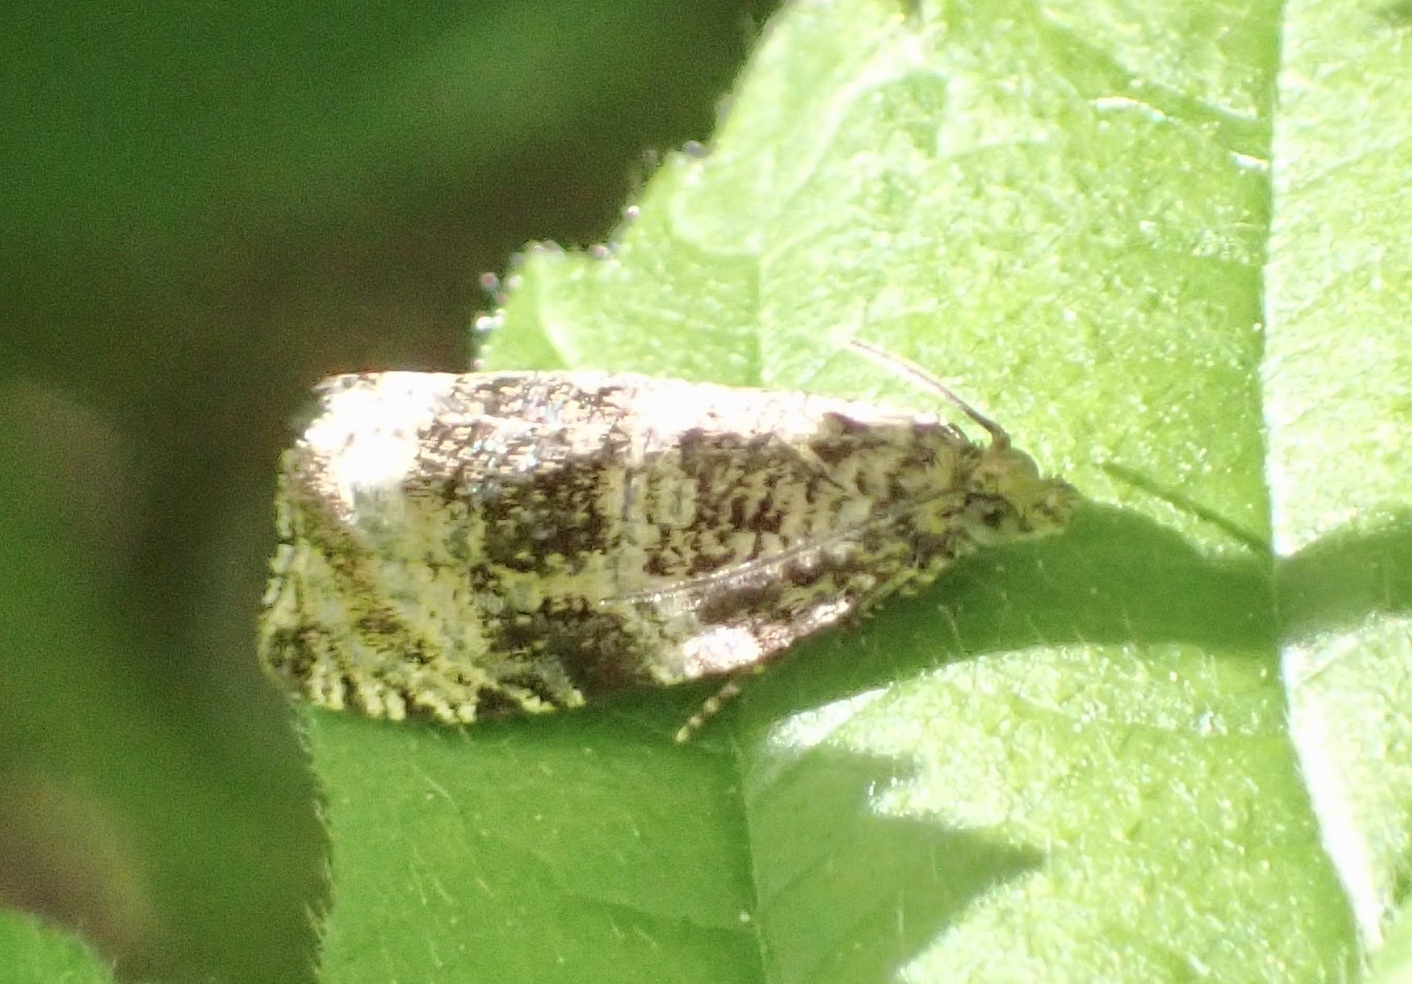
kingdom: Animalia
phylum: Arthropoda
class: Insecta
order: Lepidoptera
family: Tortricidae
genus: Syricoris
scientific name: Syricoris lacunana
